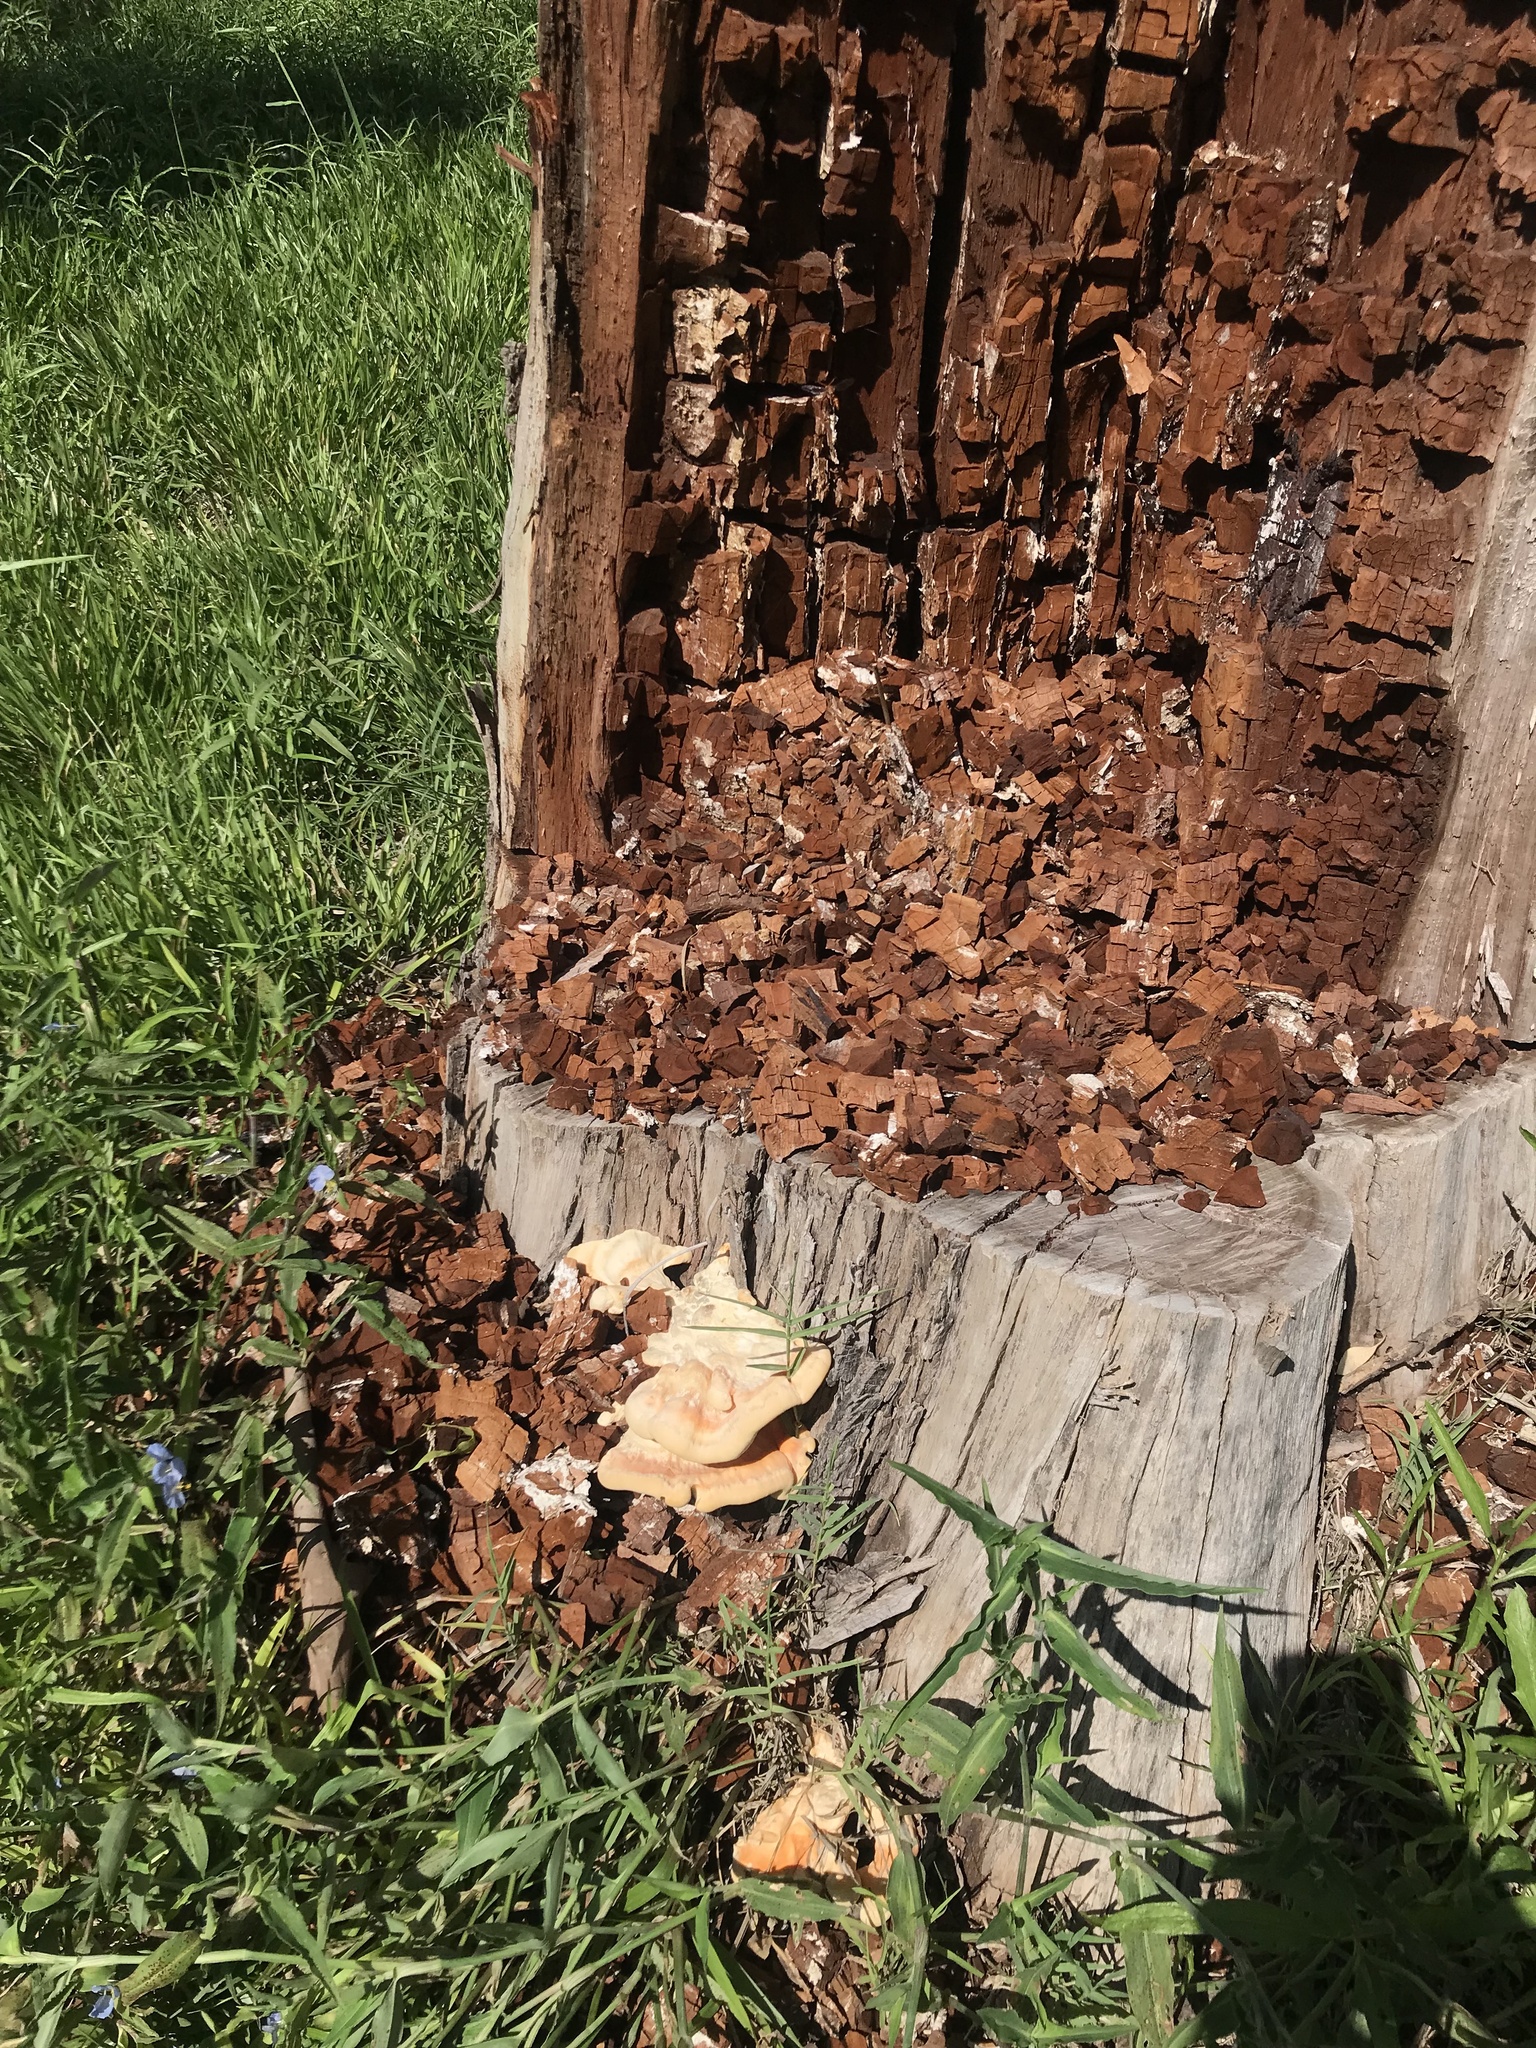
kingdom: Fungi
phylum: Basidiomycota
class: Agaricomycetes
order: Polyporales
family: Laetiporaceae
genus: Laetiporus
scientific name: Laetiporus sulphureus
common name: Chicken of the woods
